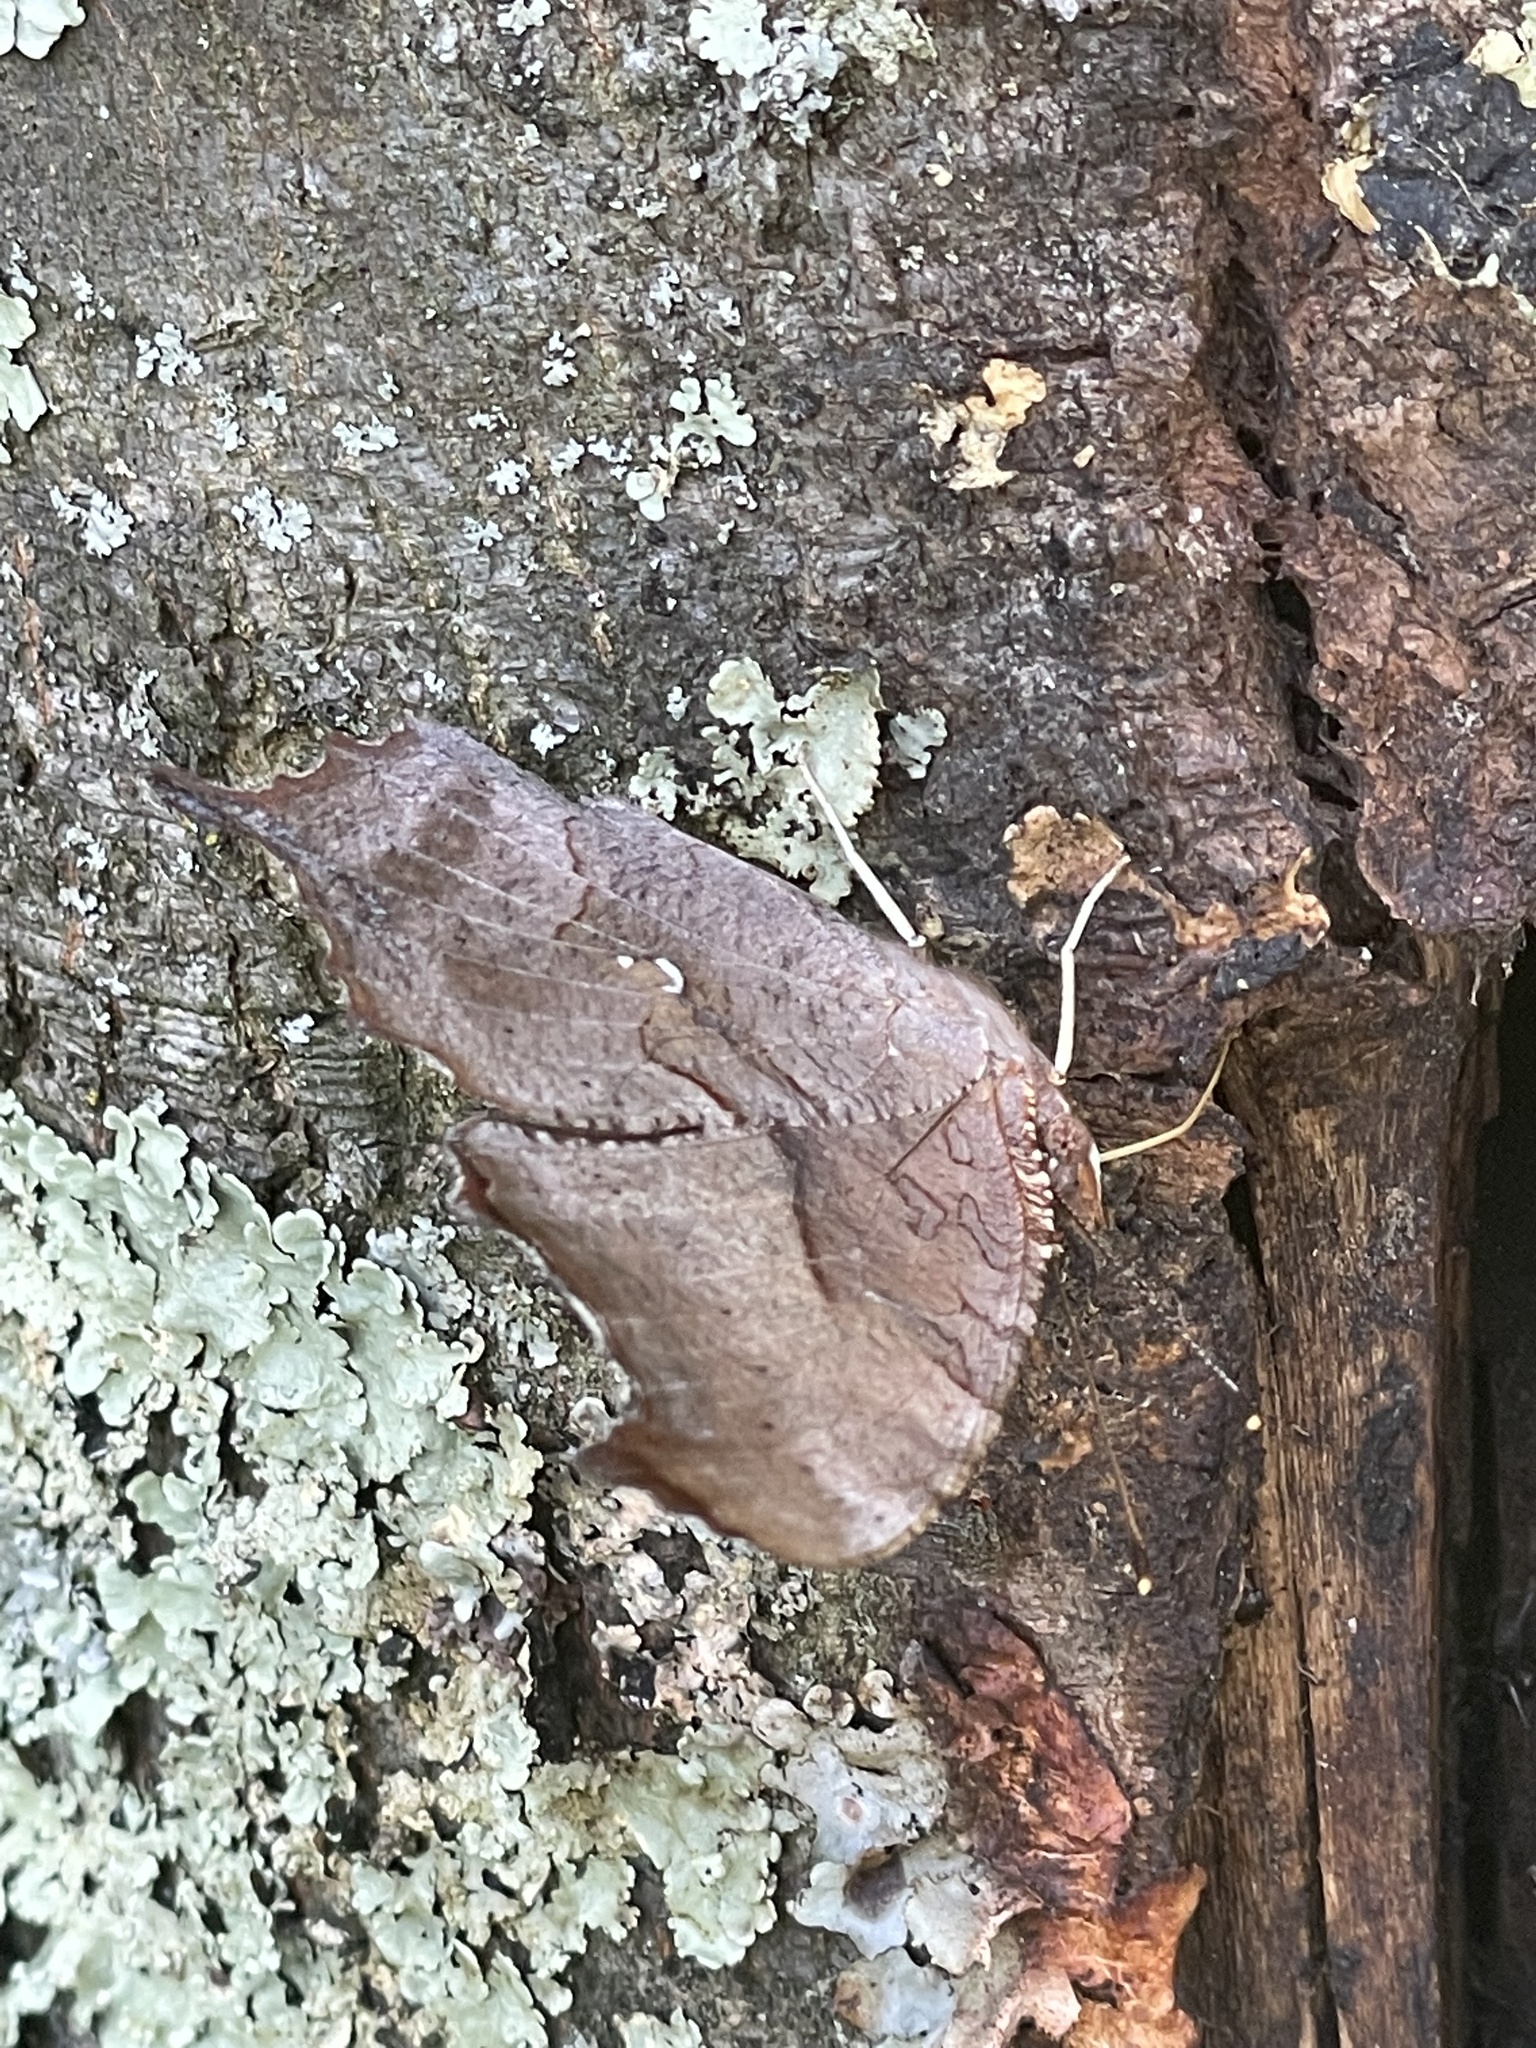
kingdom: Animalia
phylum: Arthropoda
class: Insecta
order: Lepidoptera
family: Nymphalidae
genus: Polygonia
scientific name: Polygonia interrogationis
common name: Question mark
